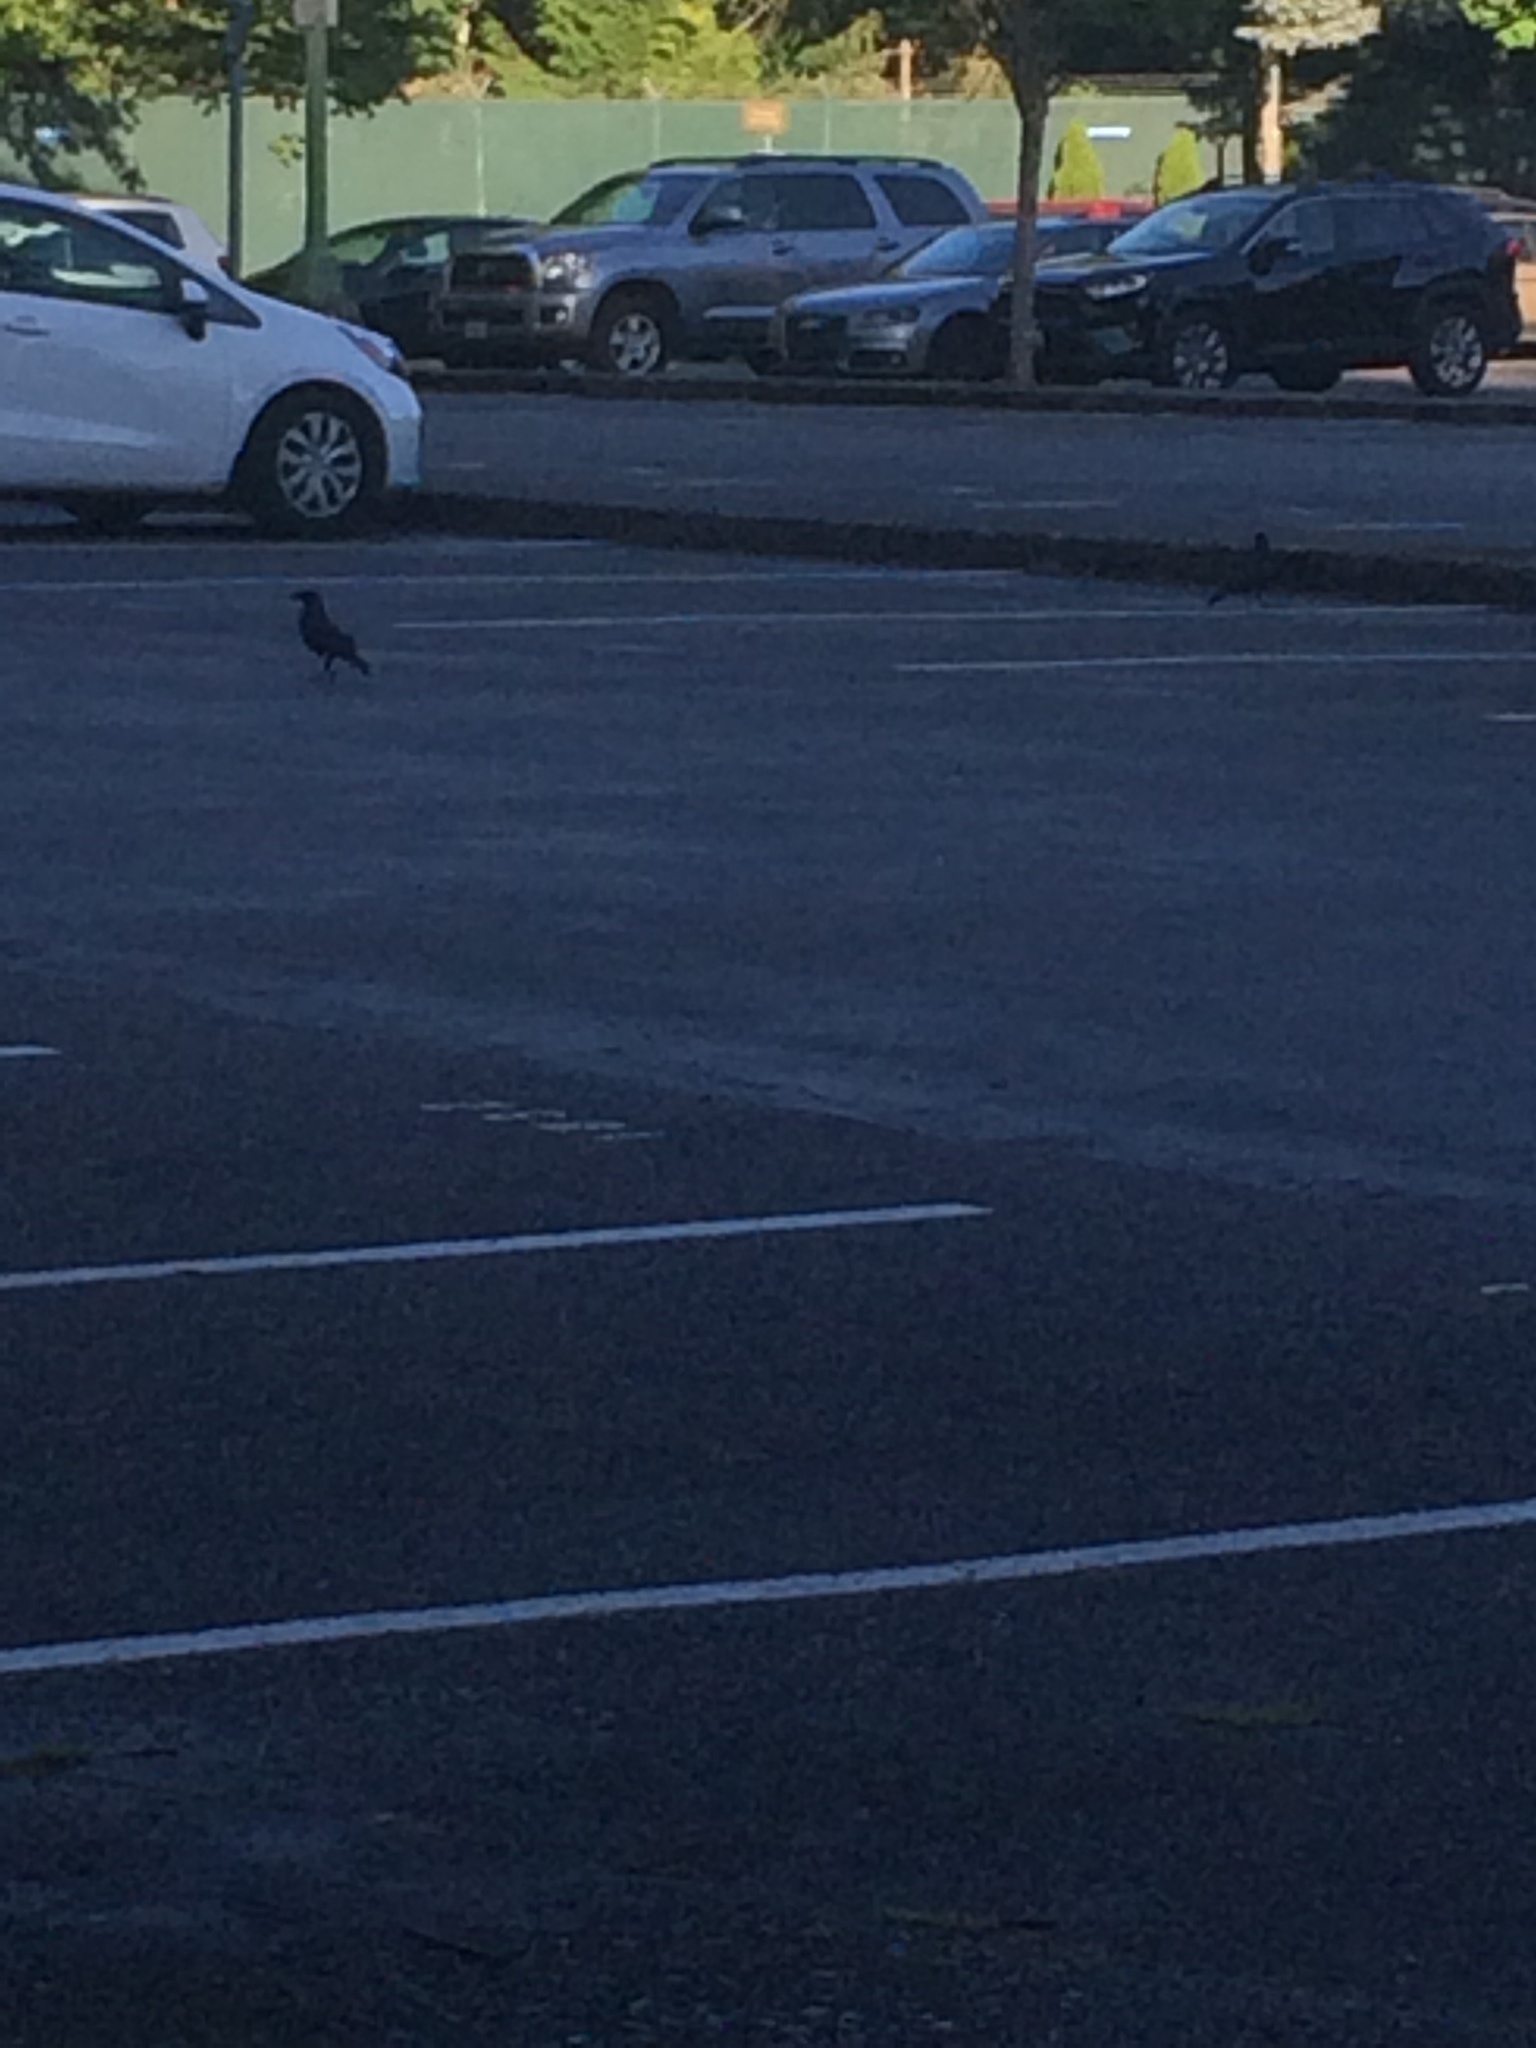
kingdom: Animalia
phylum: Chordata
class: Aves
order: Passeriformes
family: Corvidae
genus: Corvus
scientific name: Corvus brachyrhynchos
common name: American crow
